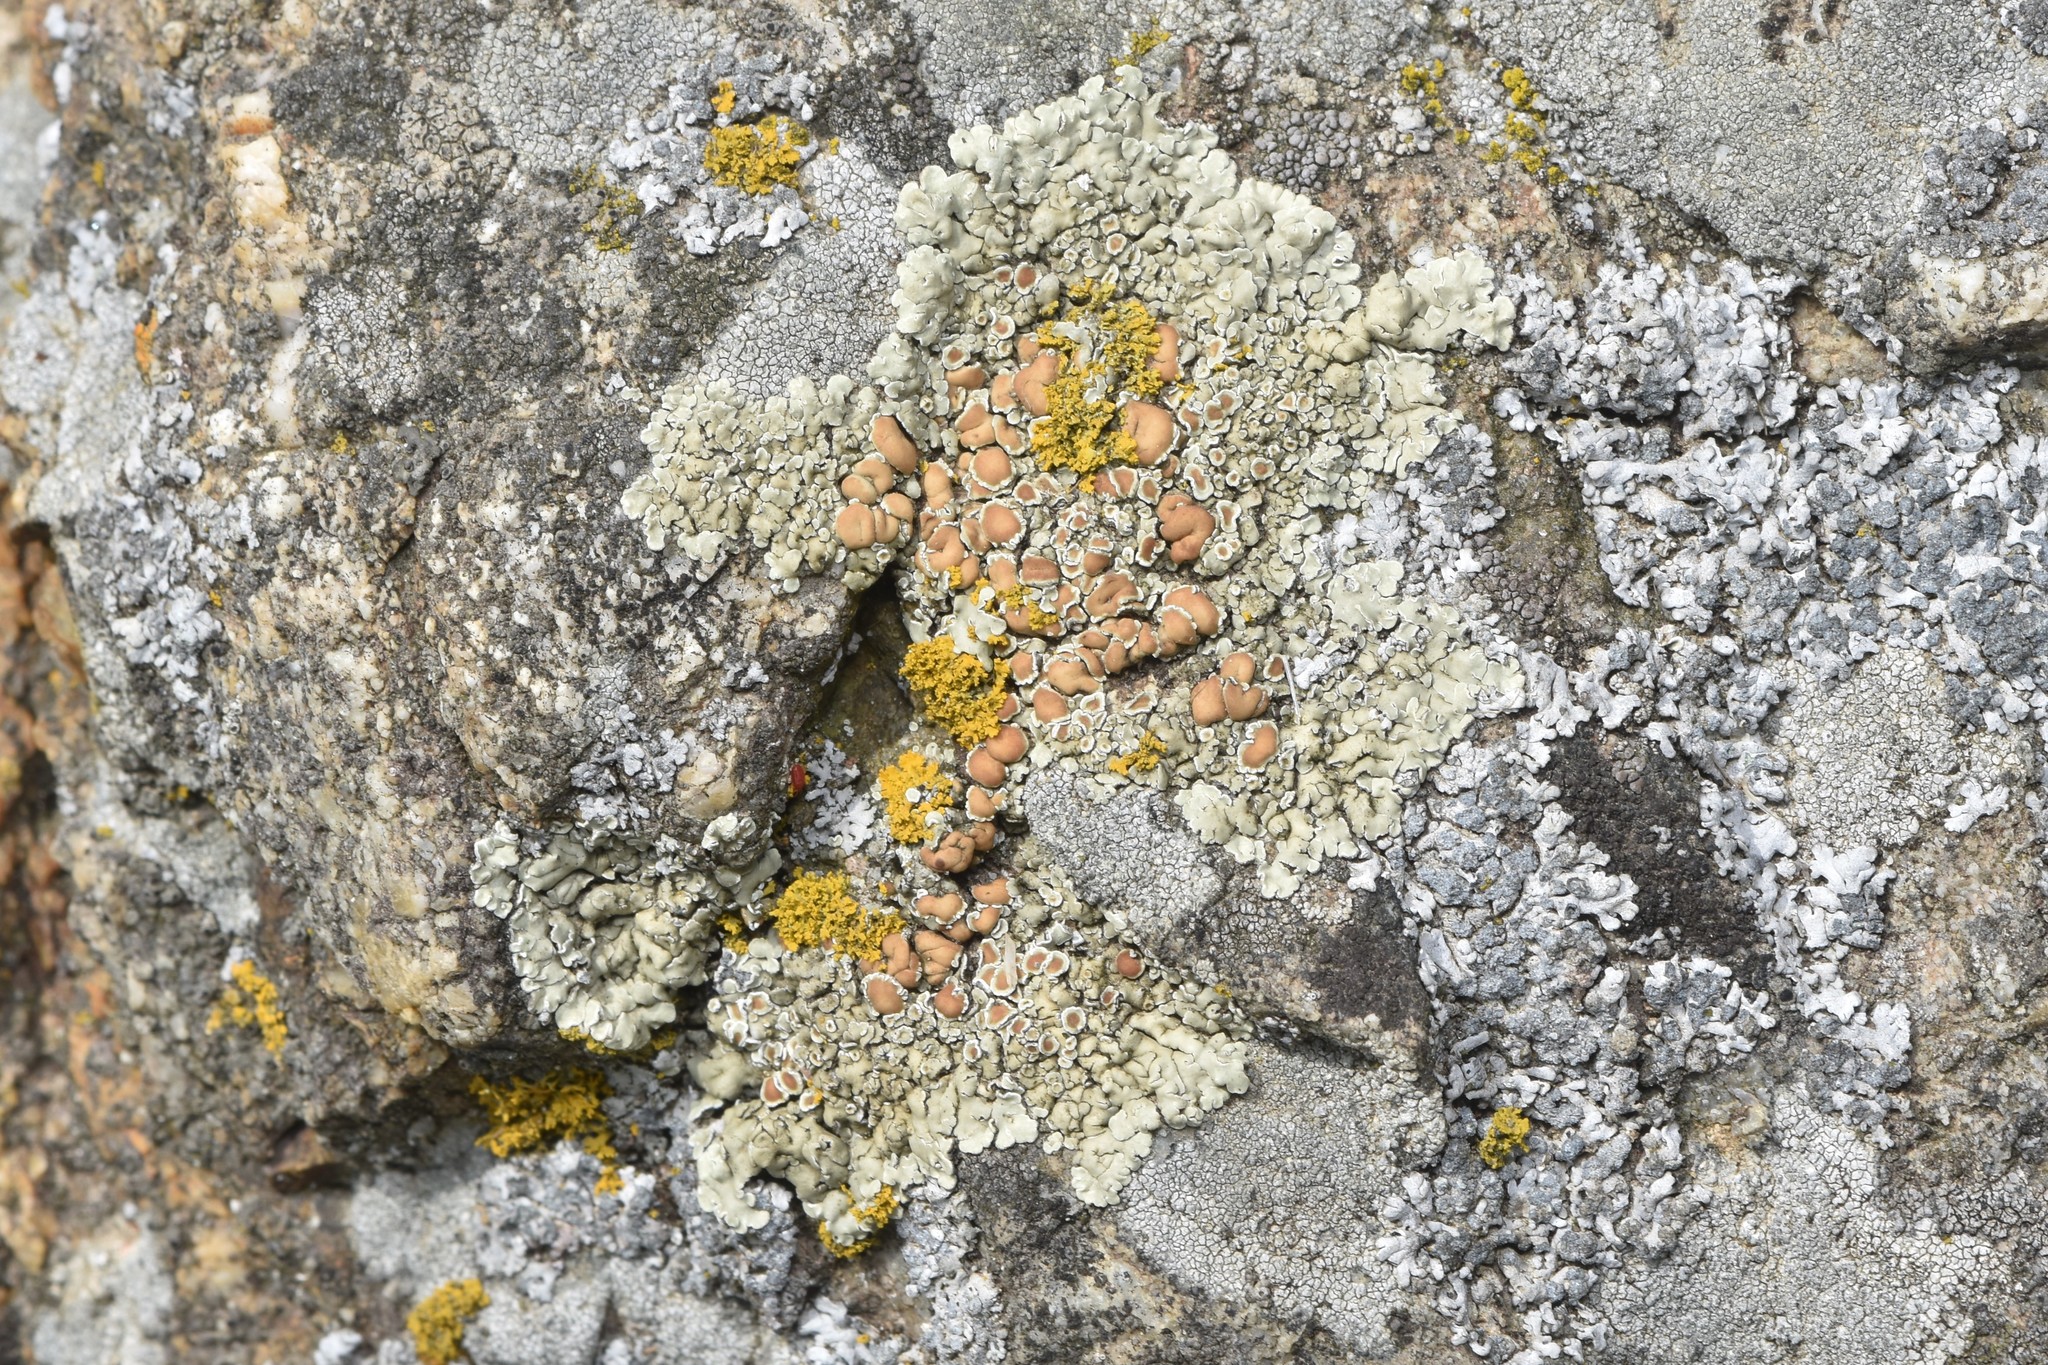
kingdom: Fungi
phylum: Ascomycota
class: Lecanoromycetes
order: Lecanorales
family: Lecanoraceae
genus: Protoparmeliopsis
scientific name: Protoparmeliopsis muralis
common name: Stonewall rim lichen
